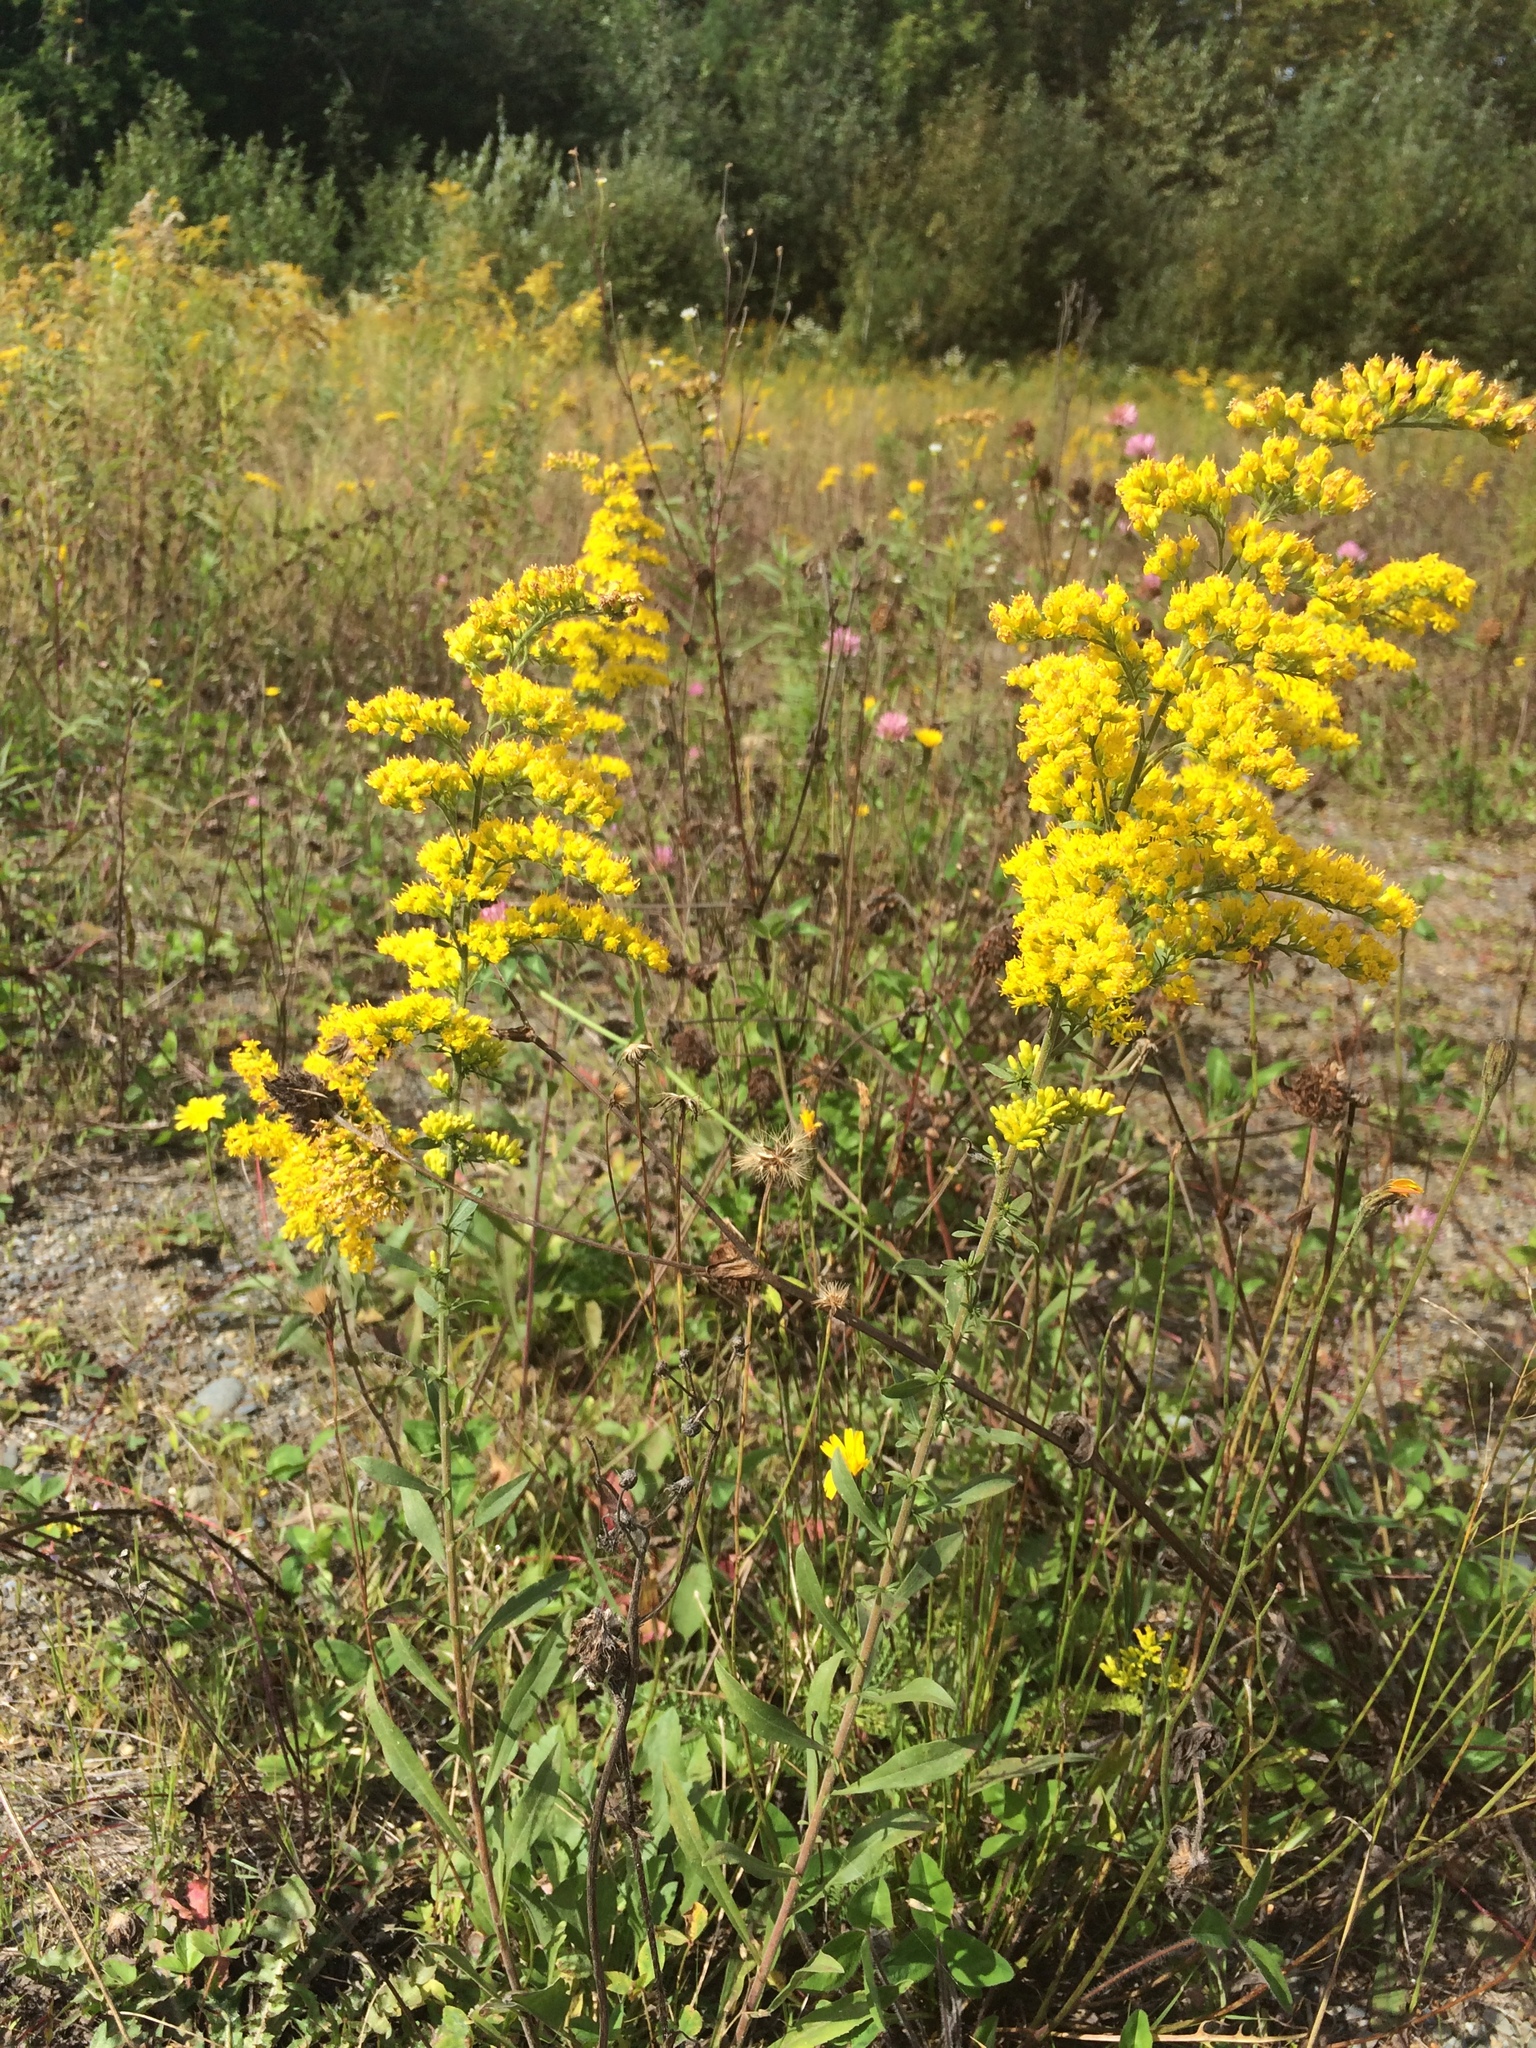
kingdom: Plantae
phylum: Tracheophyta
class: Magnoliopsida
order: Asterales
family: Asteraceae
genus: Solidago
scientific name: Solidago nemoralis
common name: Grey goldenrod
